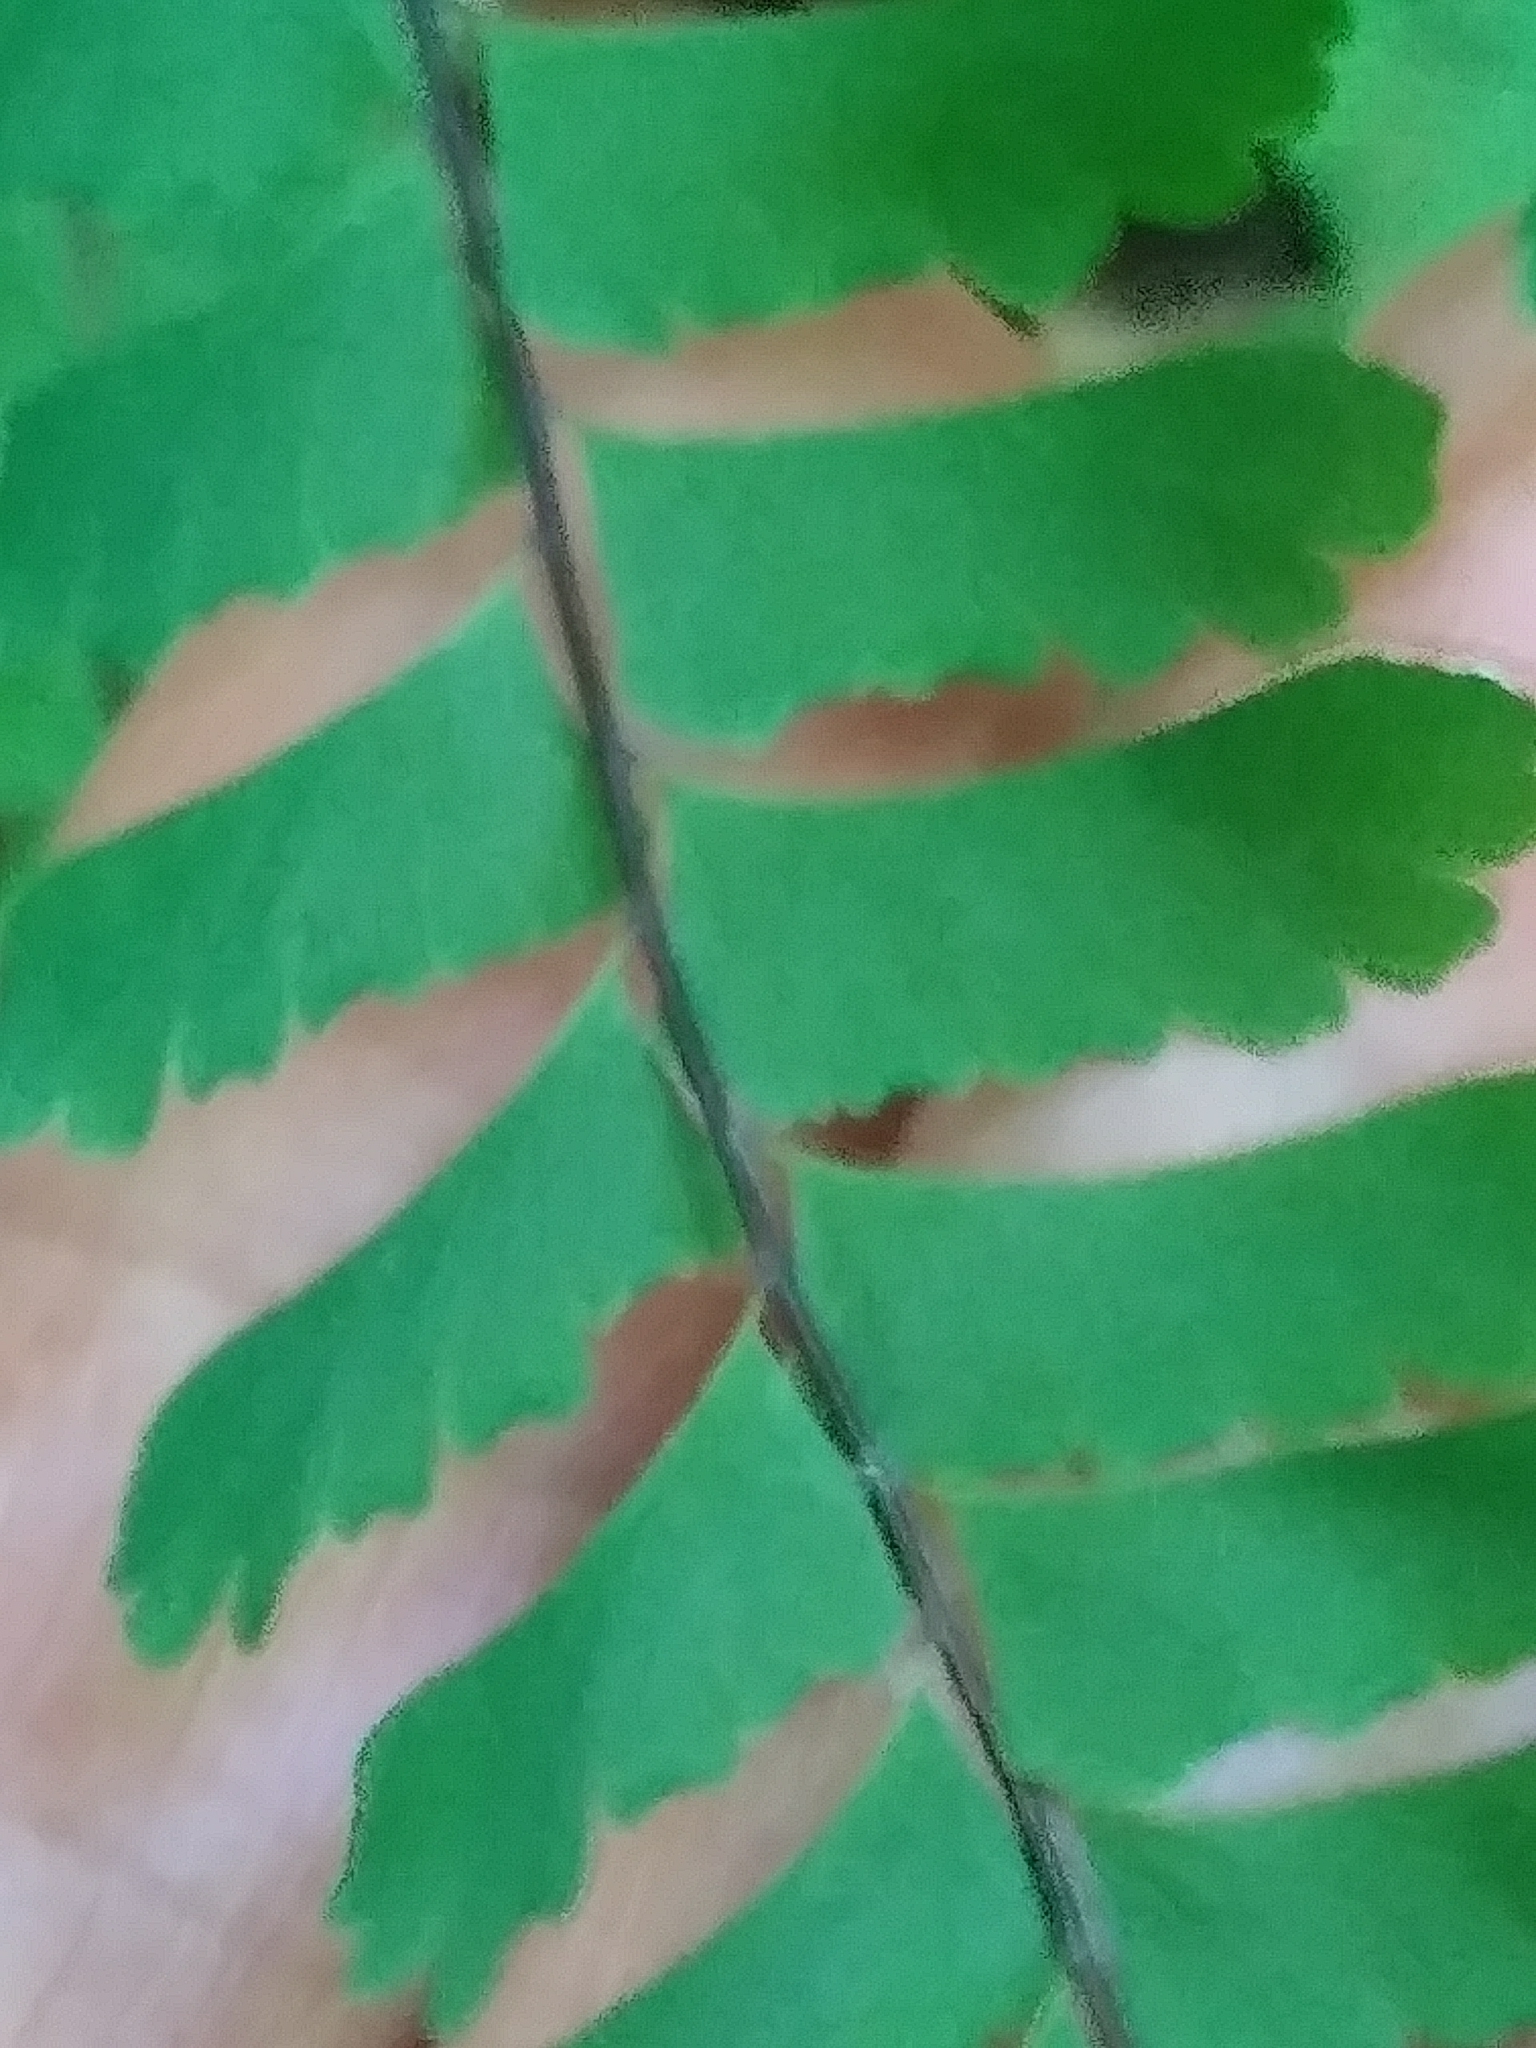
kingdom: Plantae
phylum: Tracheophyta
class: Polypodiopsida
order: Polypodiales
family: Pteridaceae
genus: Adiantum
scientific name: Adiantum pedatum
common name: Five-finger fern
